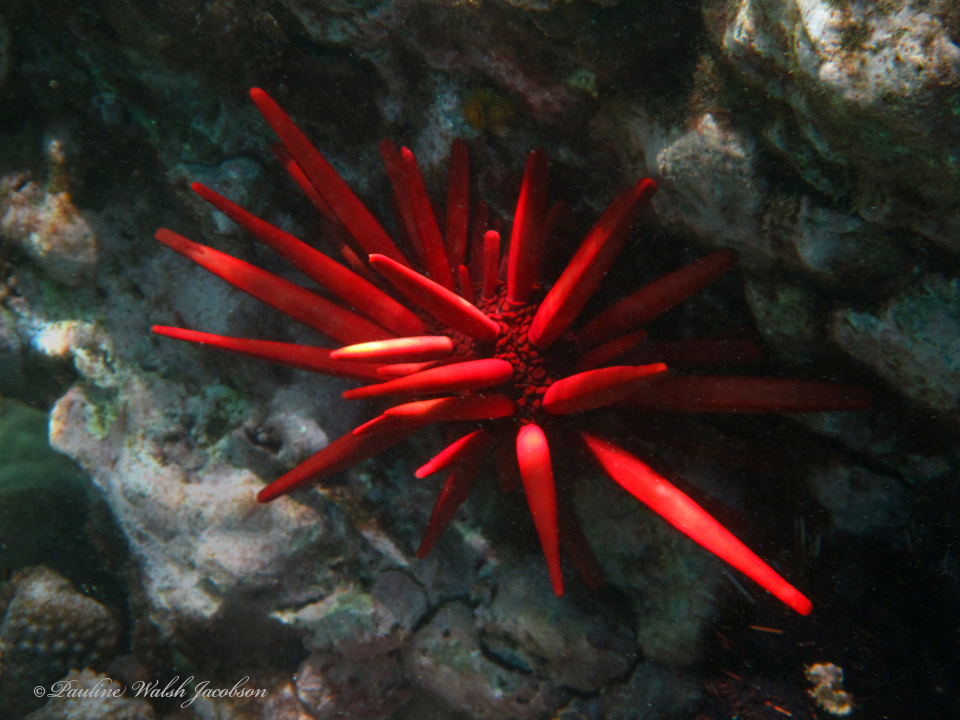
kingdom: Animalia
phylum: Echinodermata
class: Echinoidea
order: Camarodonta
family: Echinometridae
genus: Heterocentrotus
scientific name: Heterocentrotus mamillatus
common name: Slate pencil urchin
